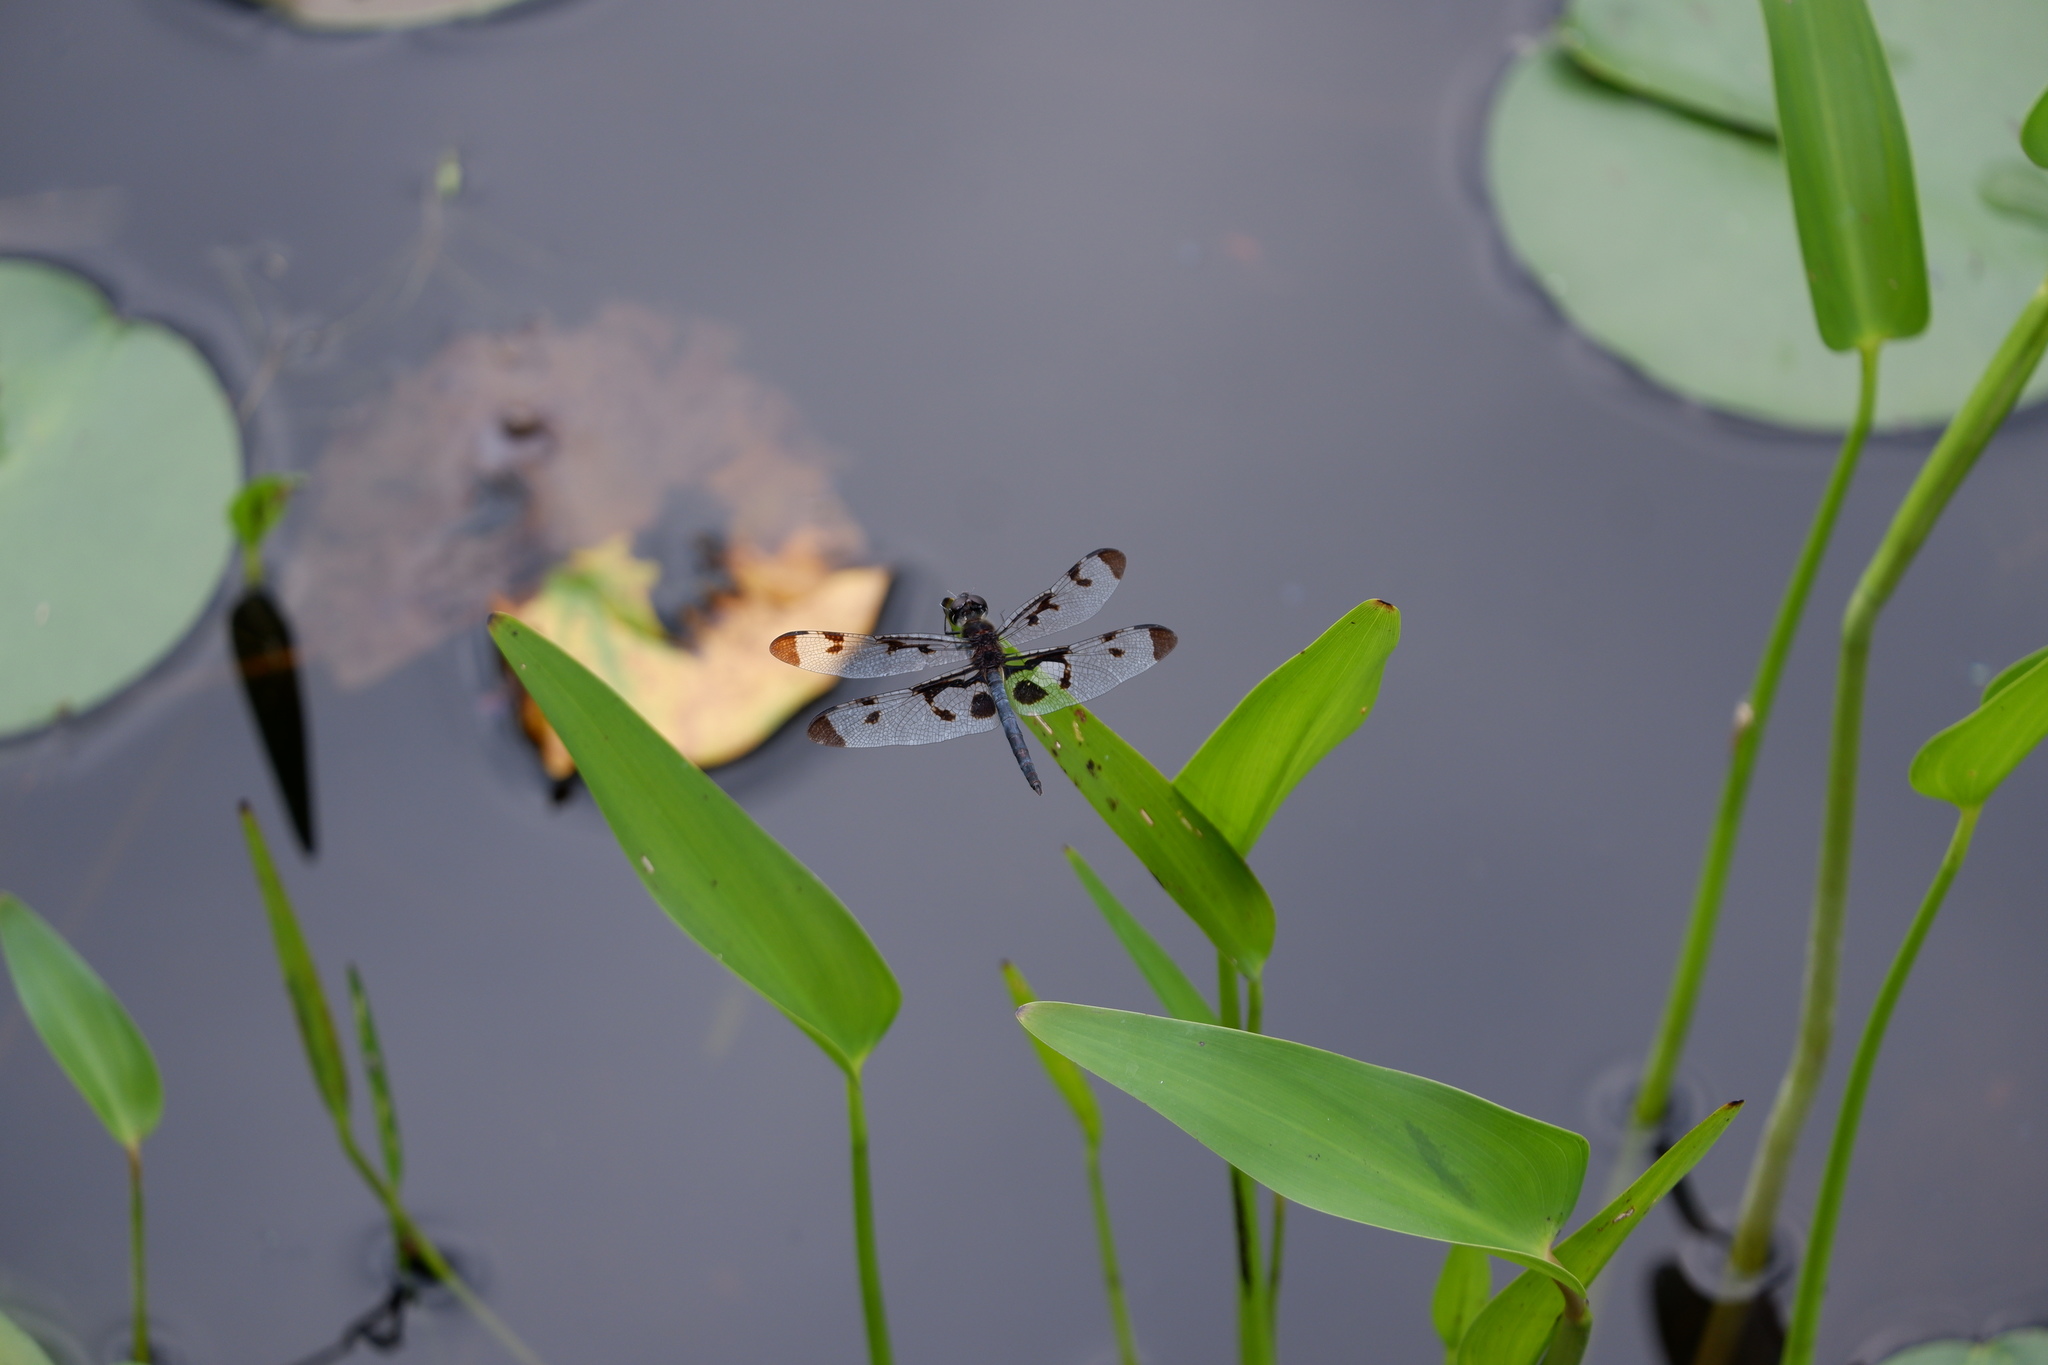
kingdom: Animalia
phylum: Arthropoda
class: Insecta
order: Odonata
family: Libellulidae
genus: Celithemis
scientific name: Celithemis fasciata
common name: Banded pennant
